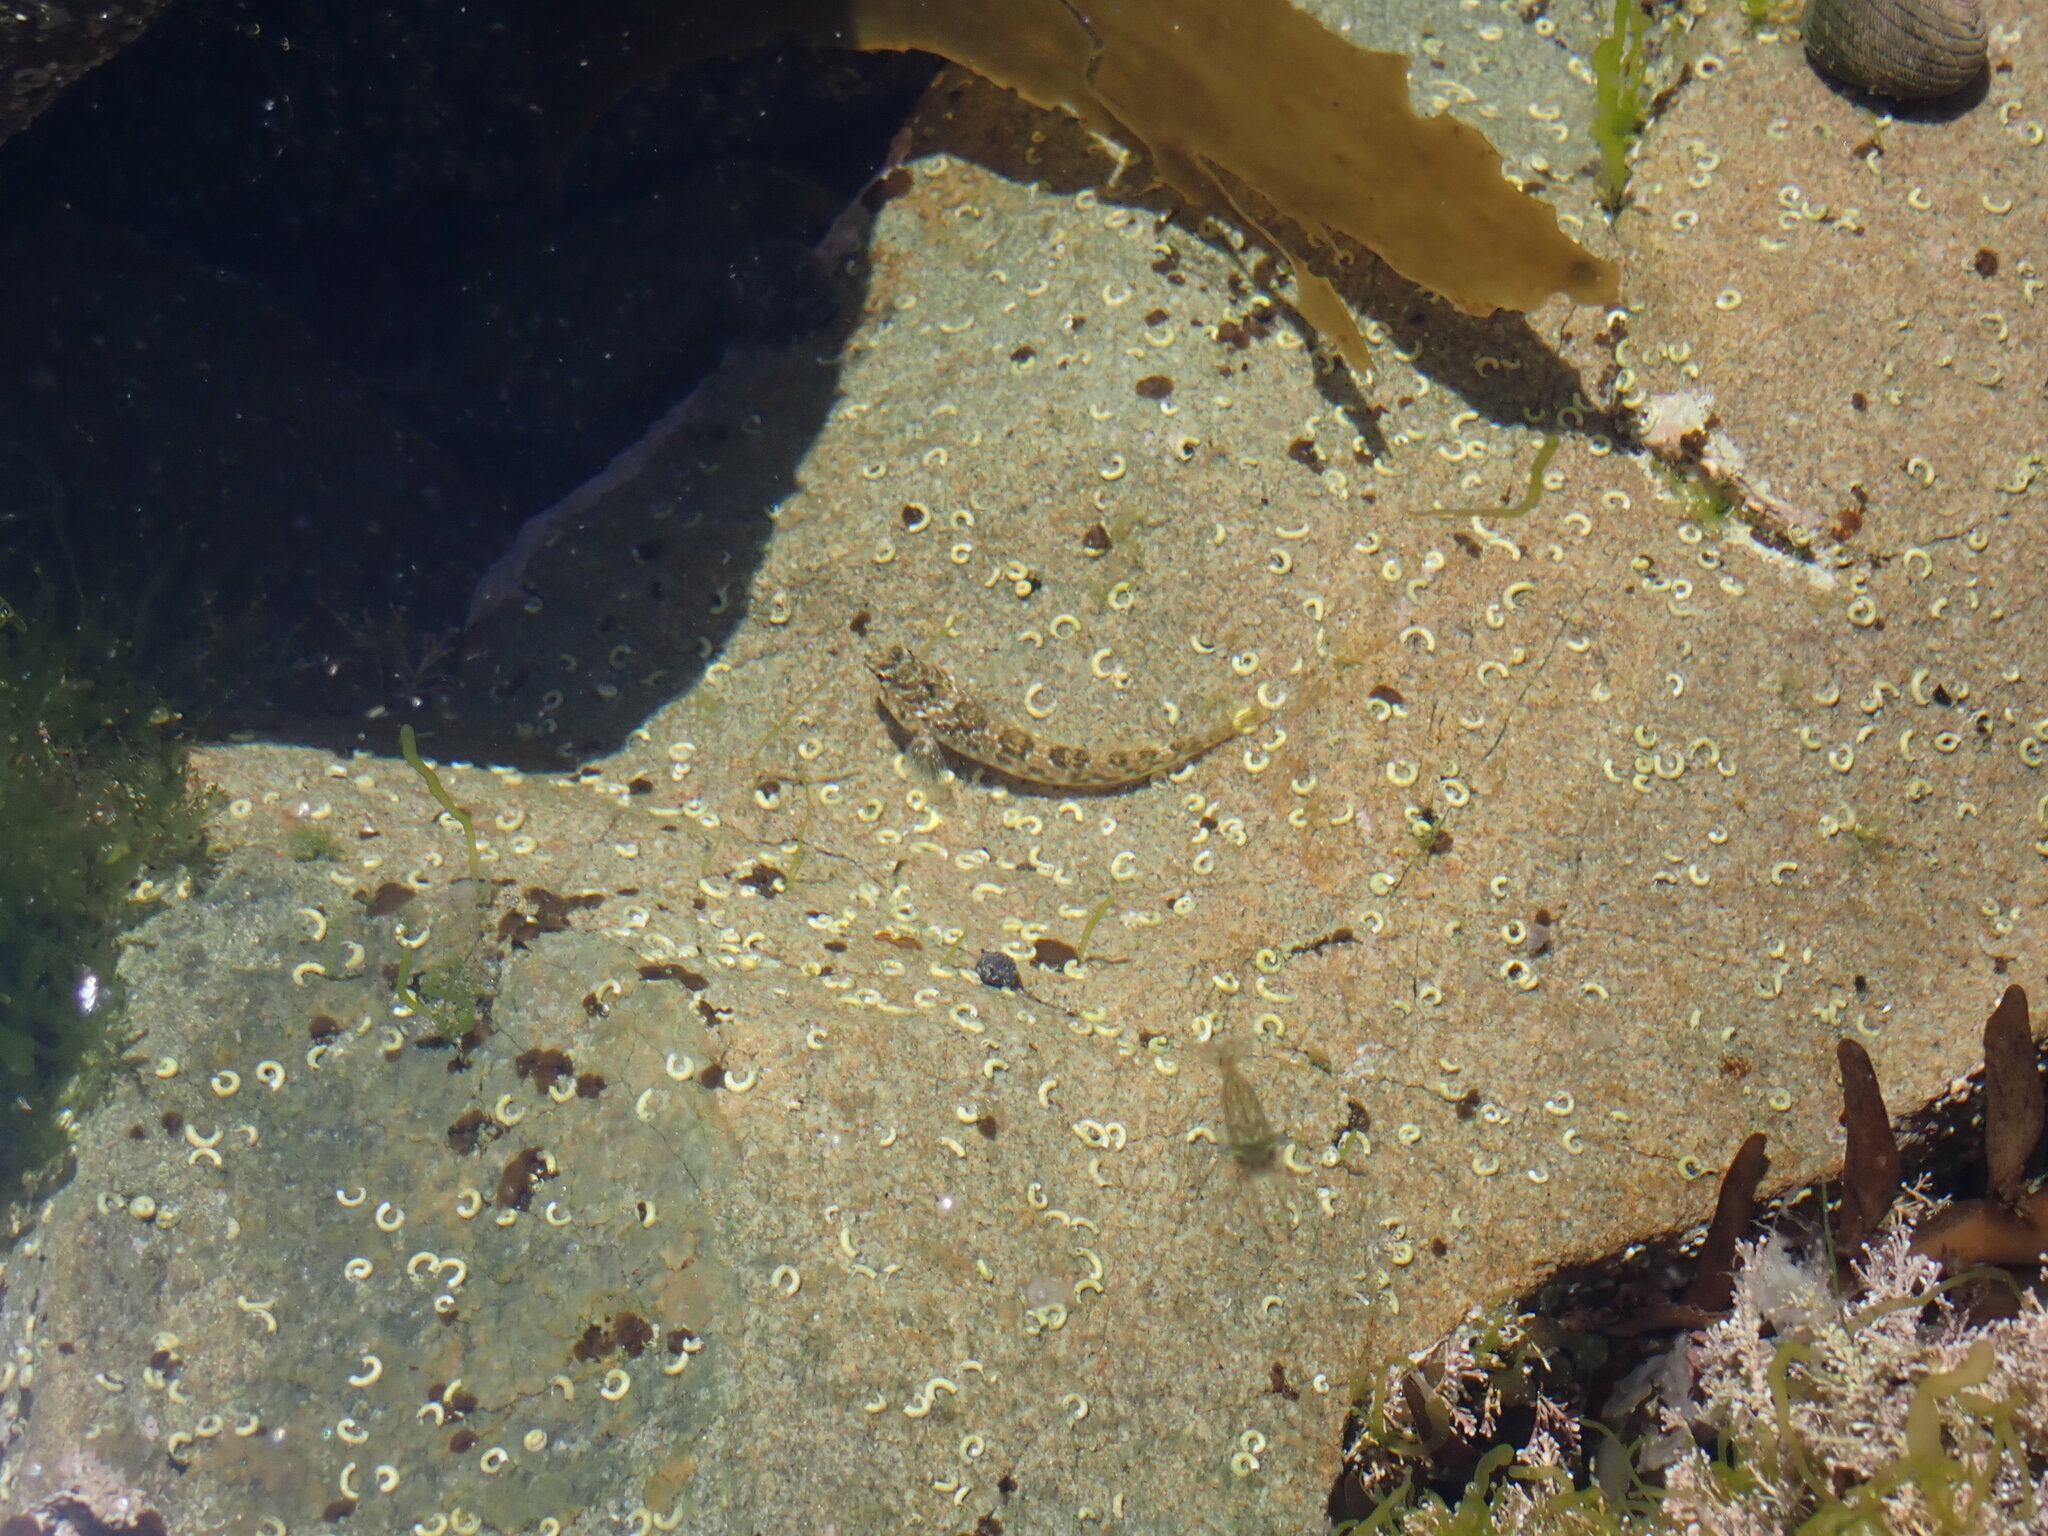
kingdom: Animalia
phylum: Chordata
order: Perciformes
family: Tripterygiidae
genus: Bellapiscis
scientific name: Bellapiscis medius
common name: Twister
